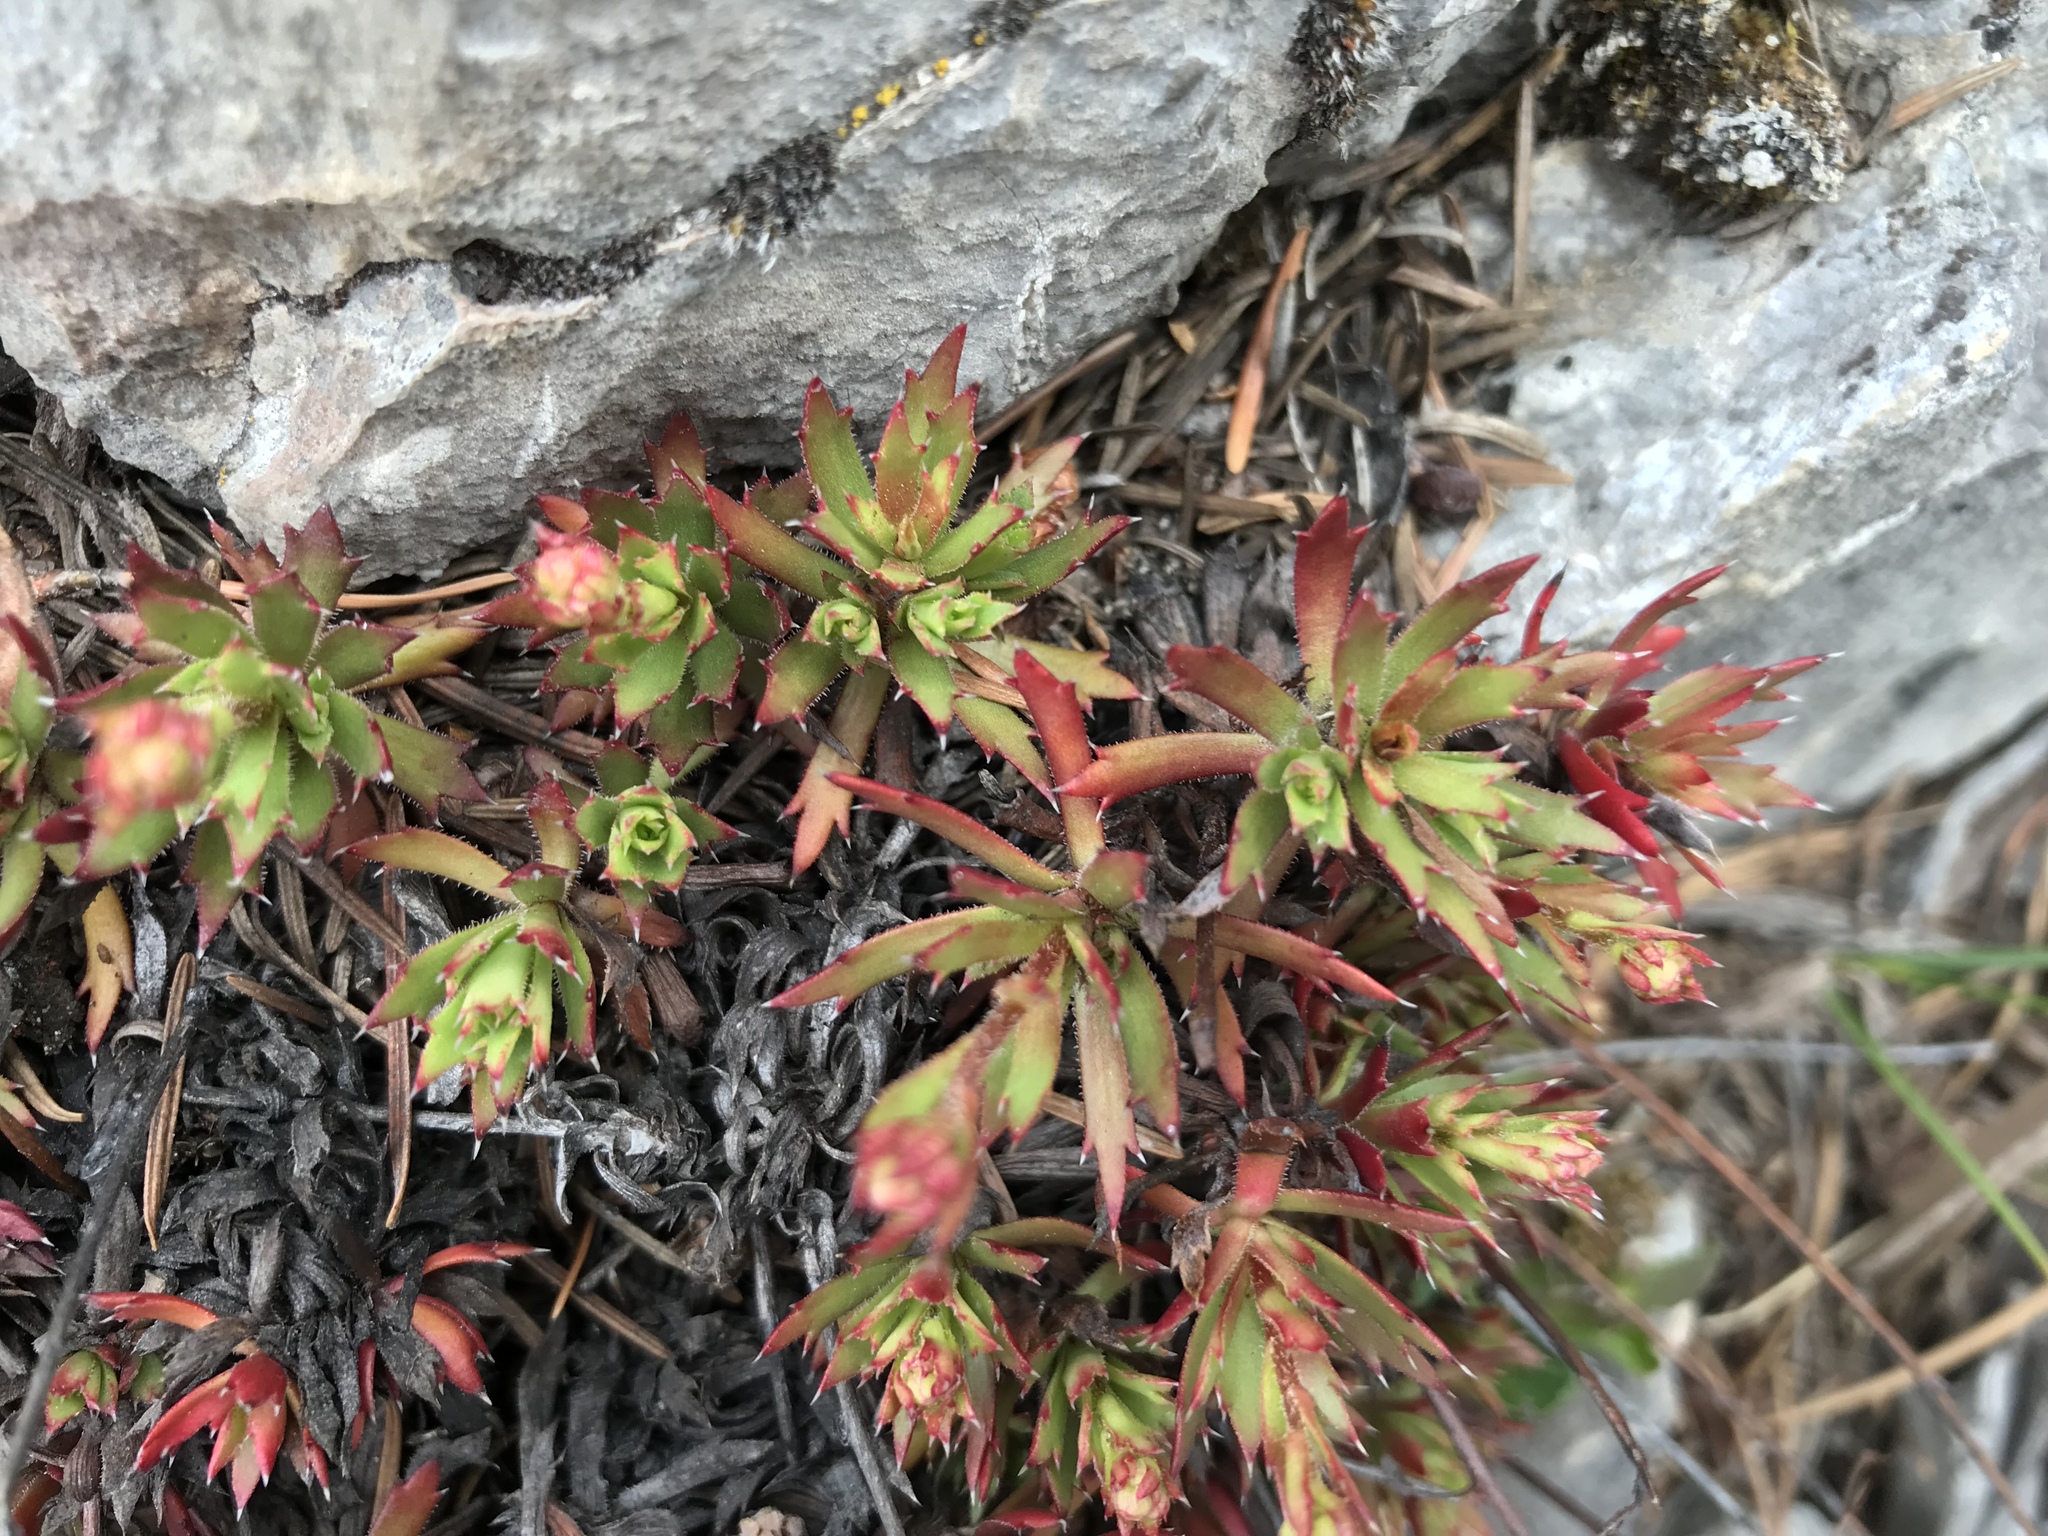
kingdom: Plantae
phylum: Tracheophyta
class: Magnoliopsida
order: Saxifragales
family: Saxifragaceae
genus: Saxifraga
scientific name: Saxifraga tricuspidata
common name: Prickly saxifrage
